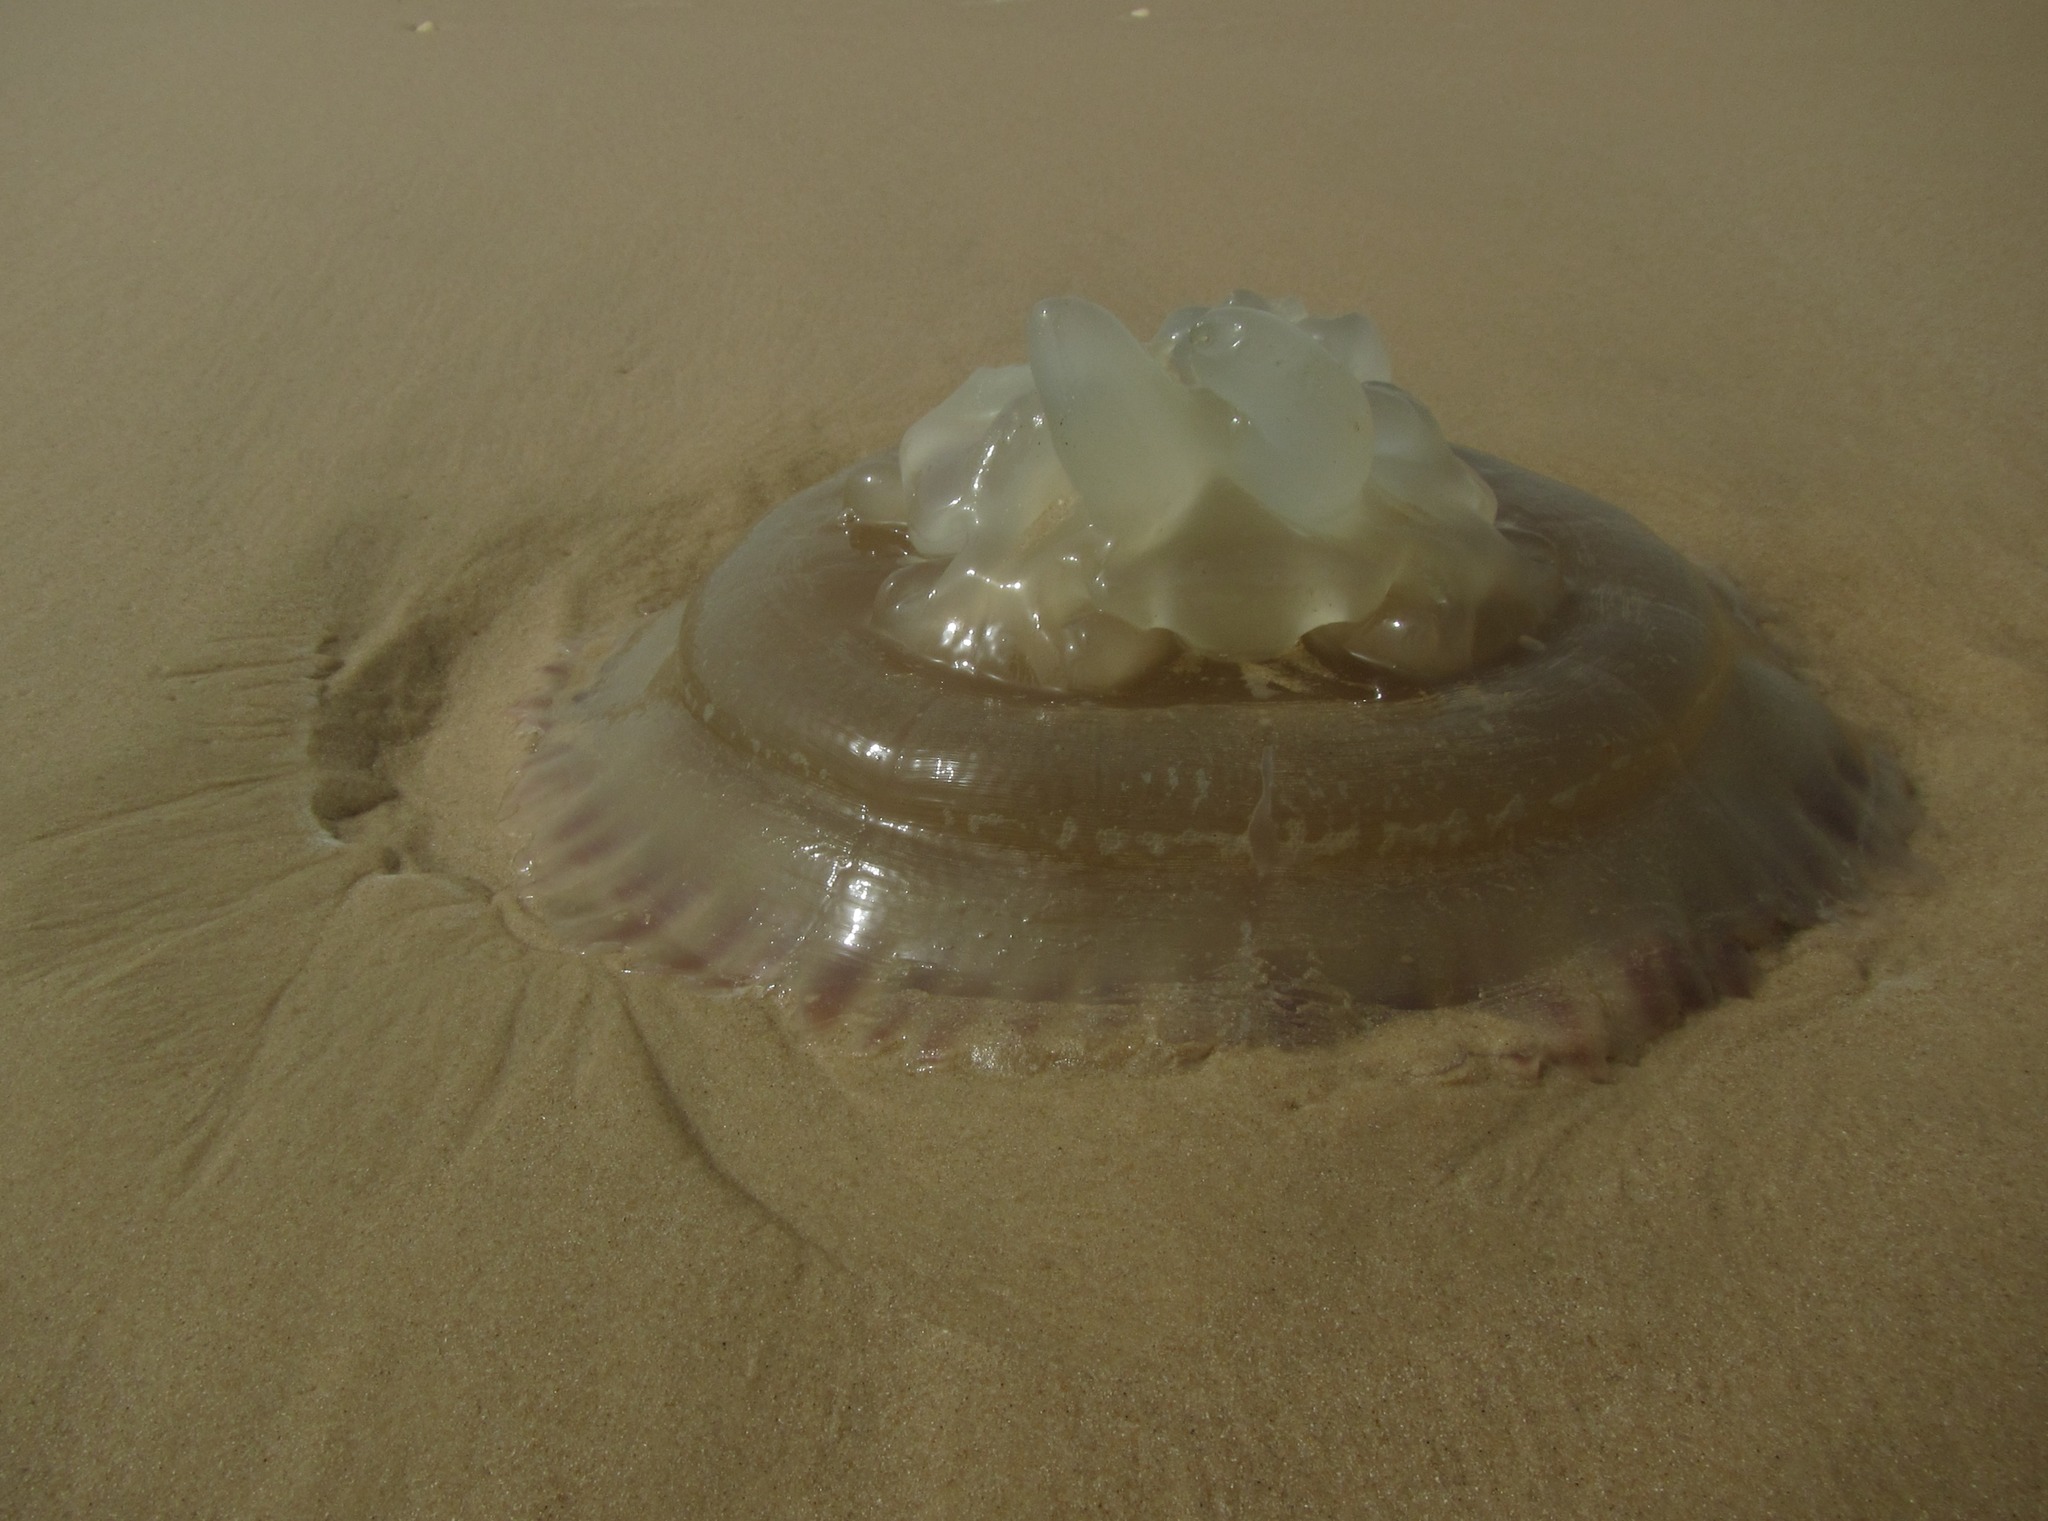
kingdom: Animalia
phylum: Cnidaria
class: Scyphozoa
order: Rhizostomeae
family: Catostylidae
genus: Catostylus
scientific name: Catostylus tagi
